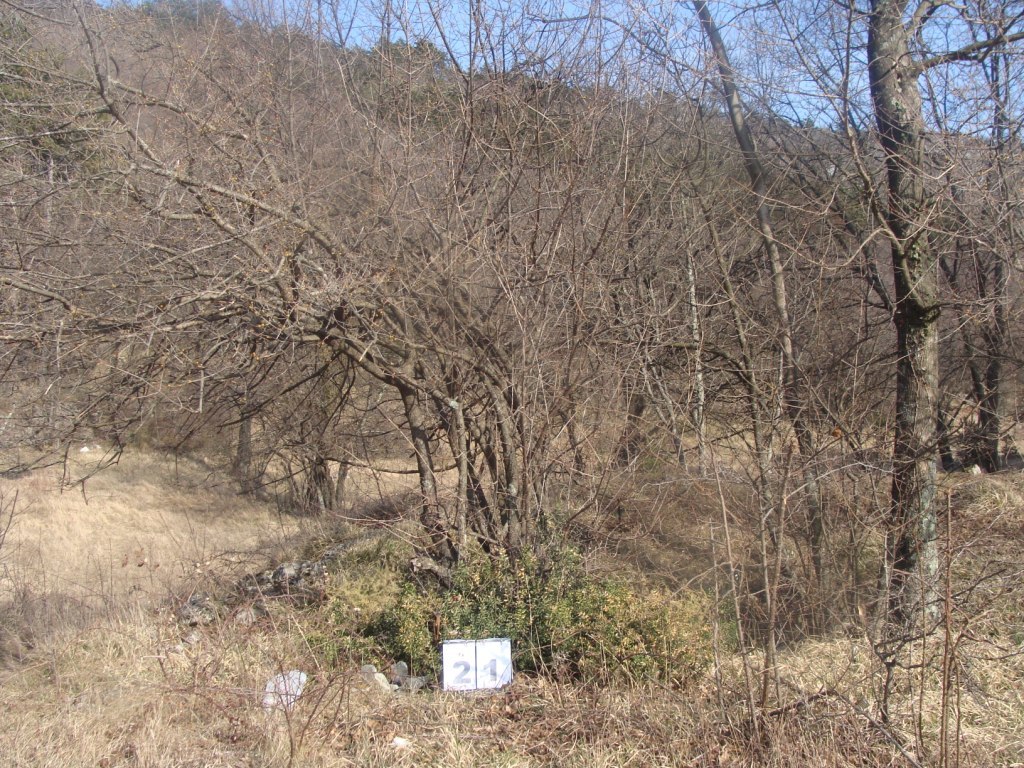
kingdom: Plantae
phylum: Tracheophyta
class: Magnoliopsida
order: Cornales
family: Cornaceae
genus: Cornus
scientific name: Cornus mas
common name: Cornelian-cherry
